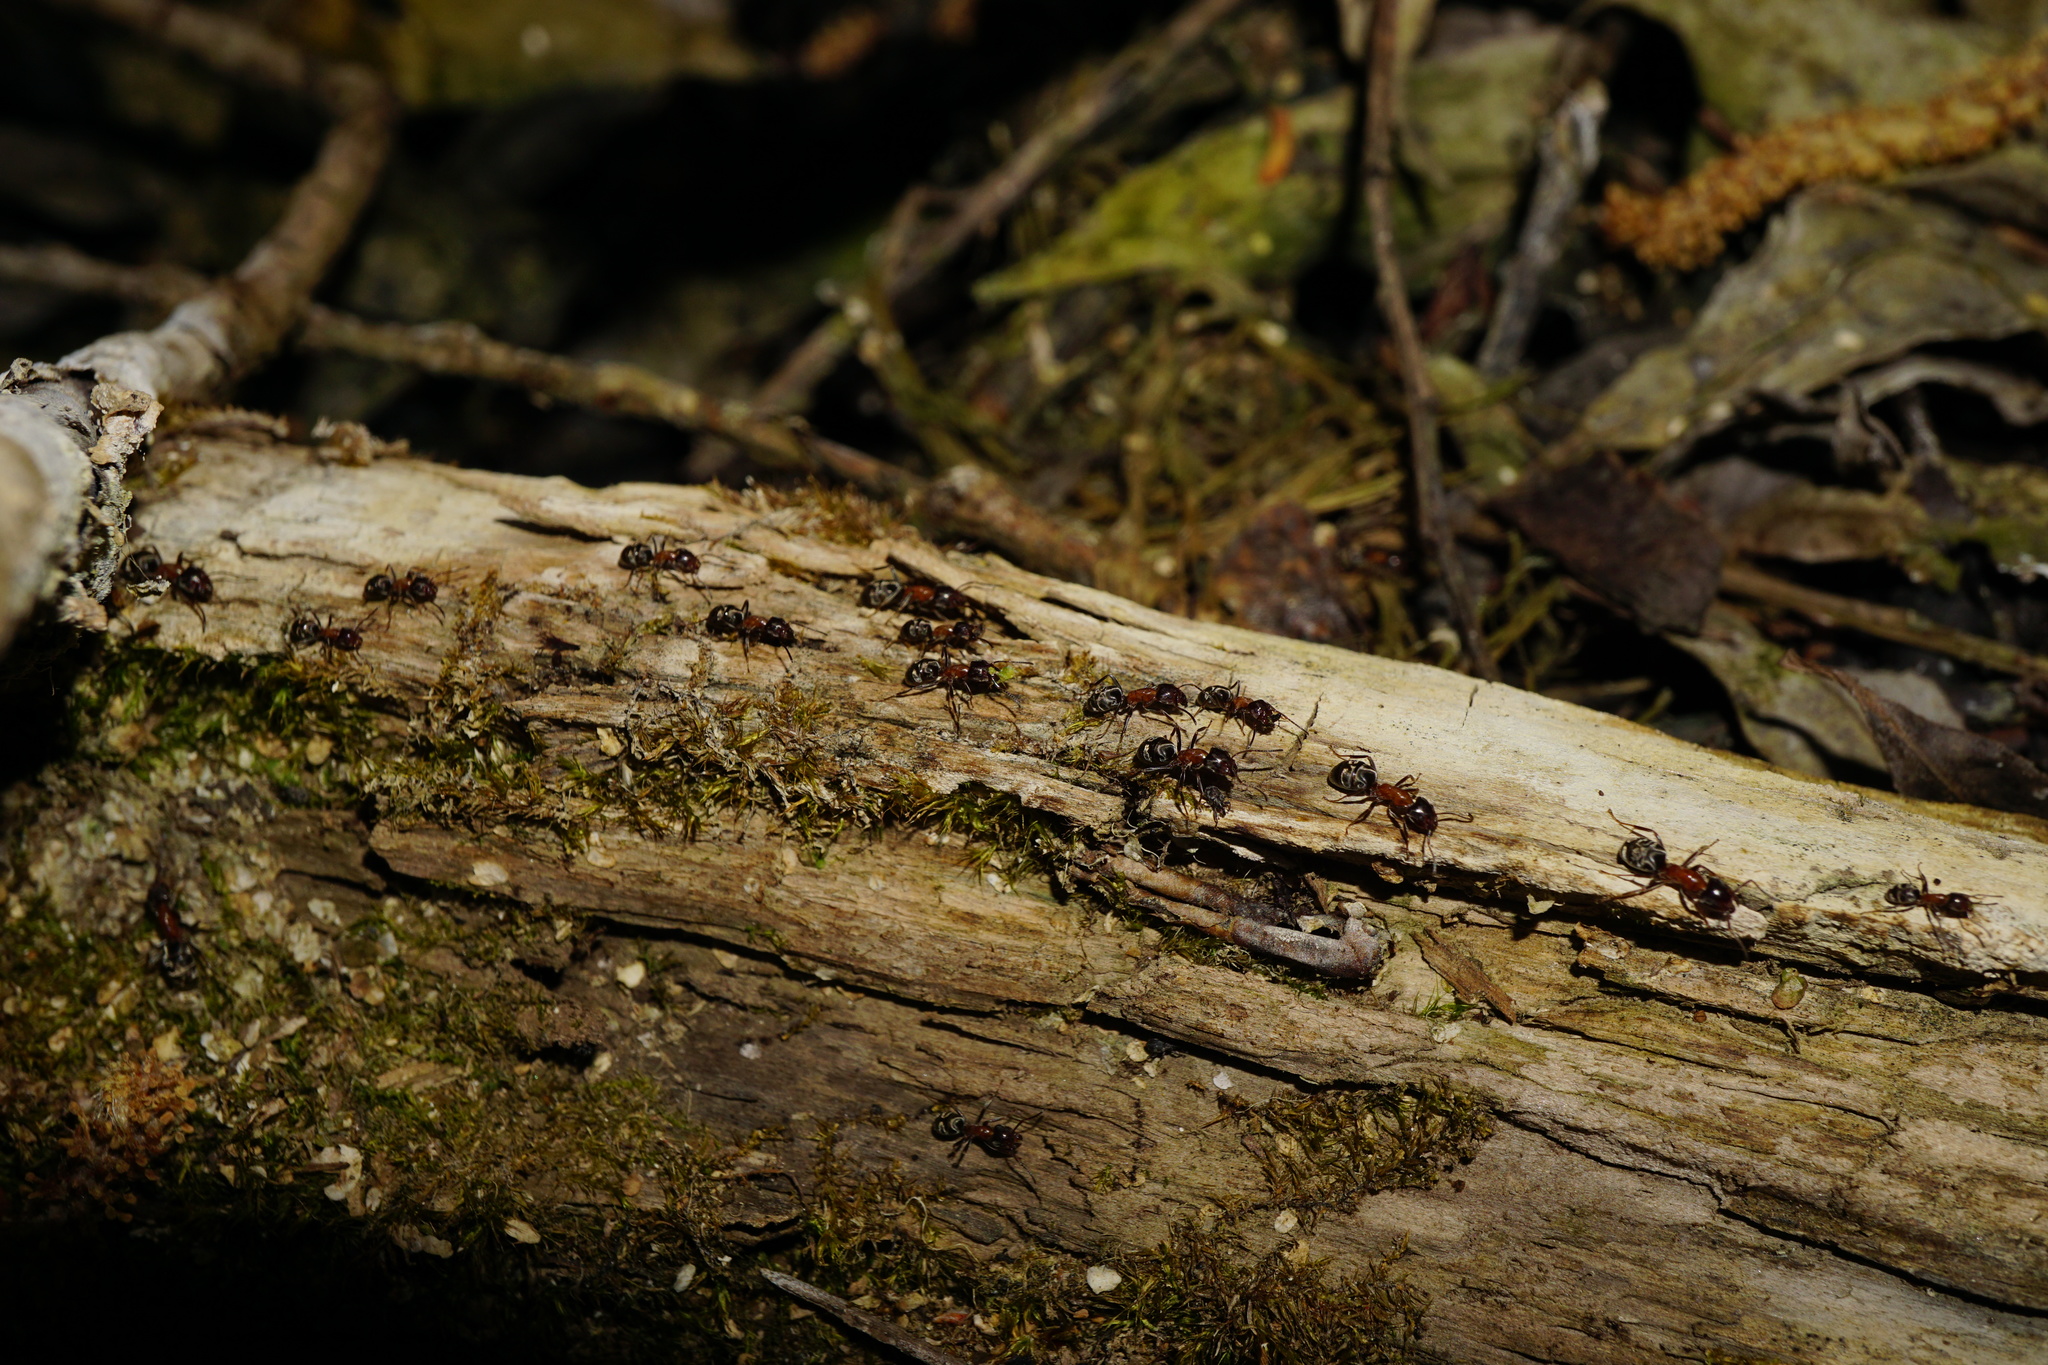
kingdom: Animalia
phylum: Arthropoda
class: Insecta
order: Hymenoptera
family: Formicidae
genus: Liometopum
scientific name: Liometopum microcephalum
